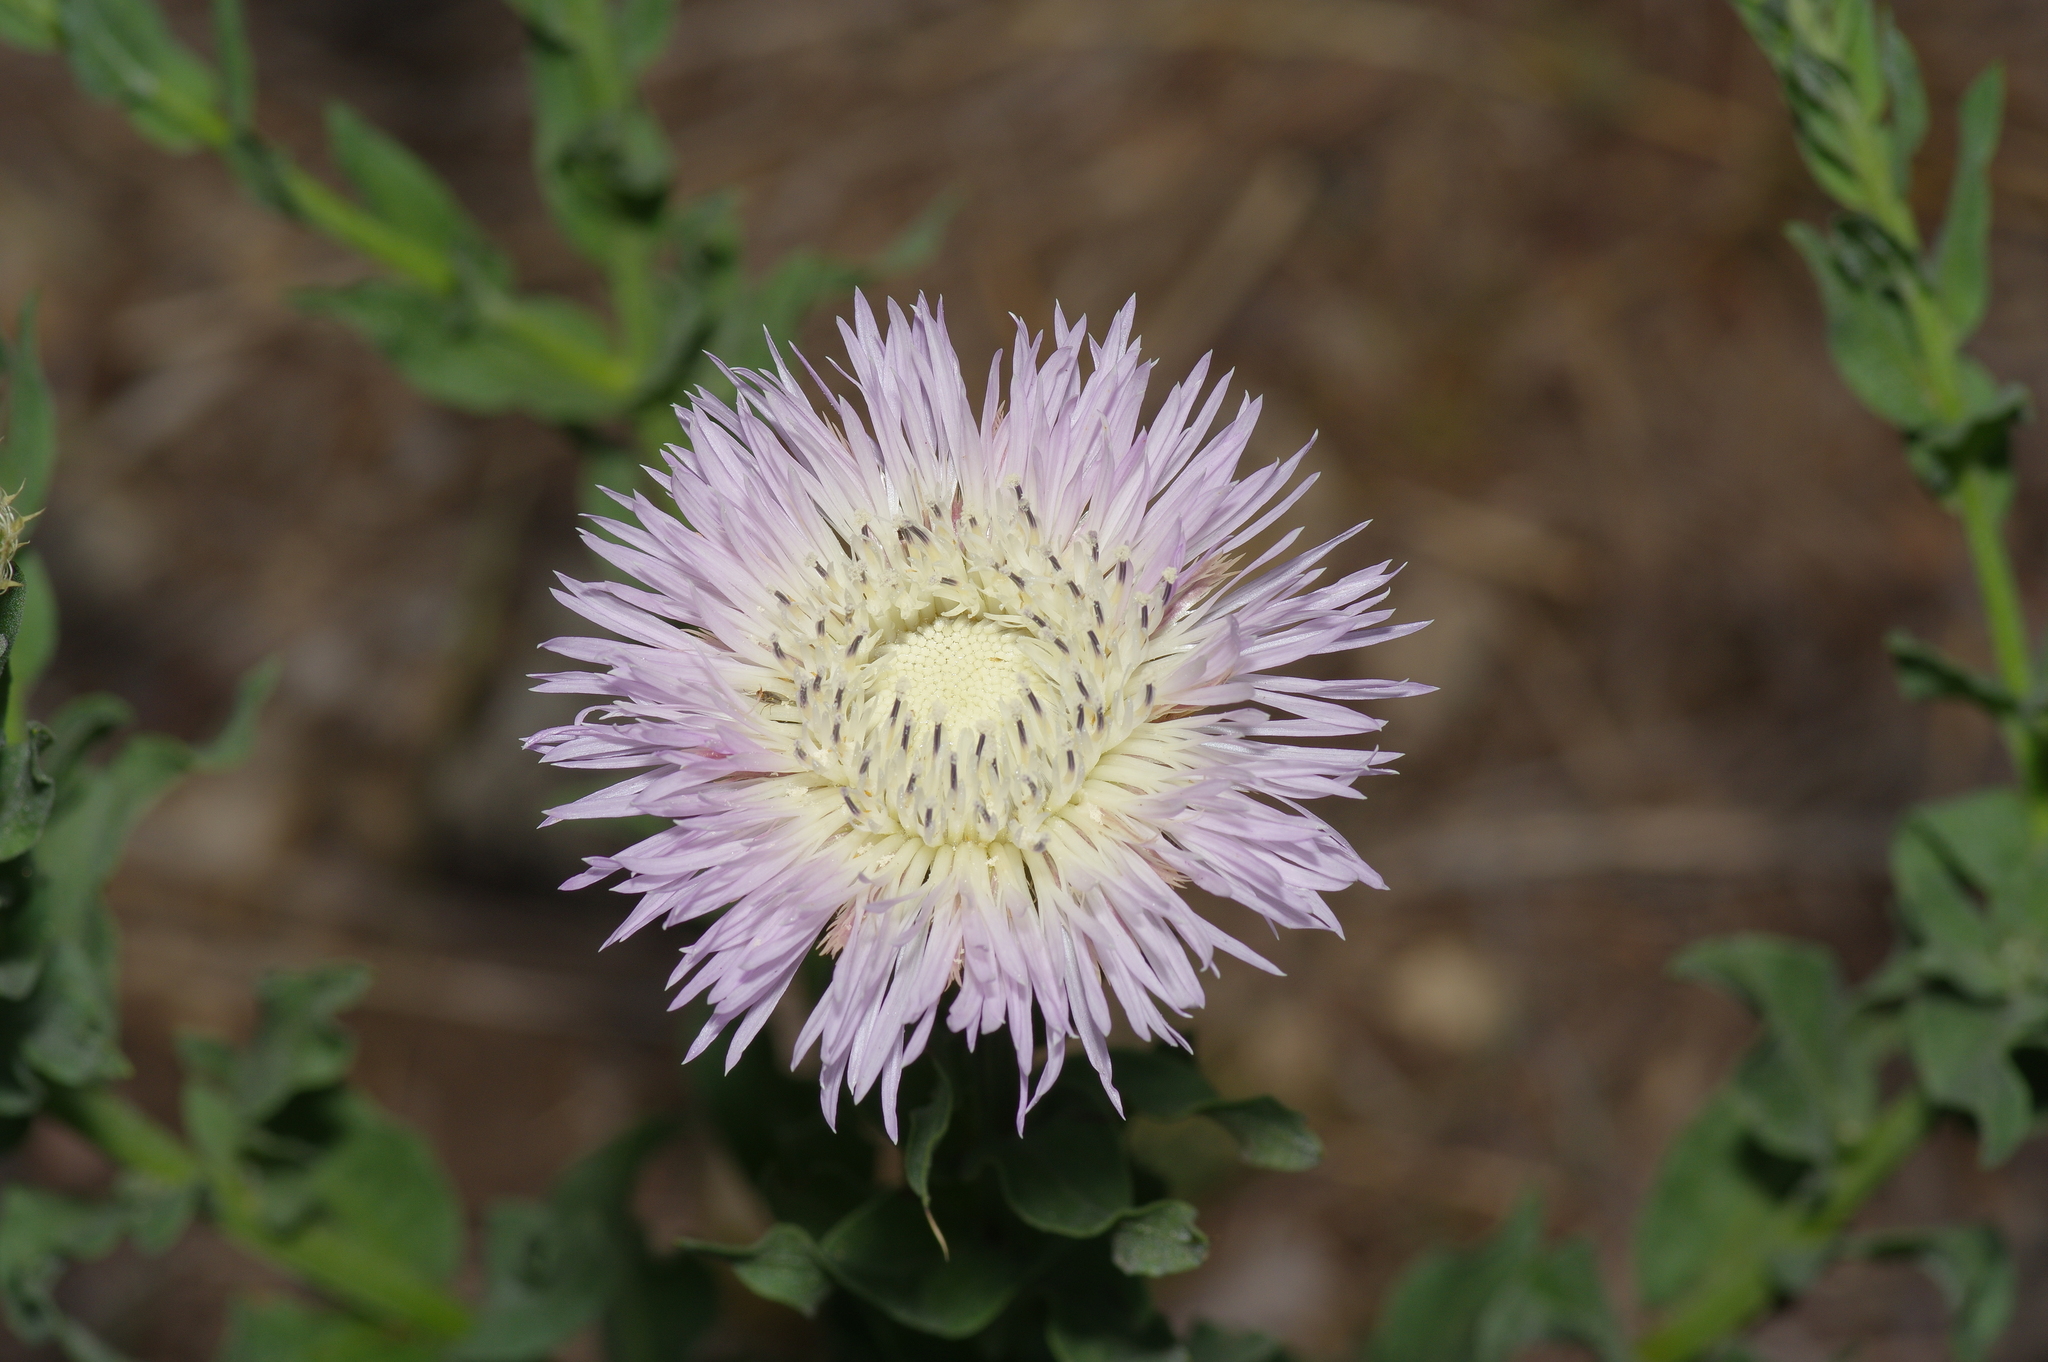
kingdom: Plantae
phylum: Tracheophyta
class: Magnoliopsida
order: Asterales
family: Asteraceae
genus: Plectocephalus
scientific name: Plectocephalus americanus
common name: American basket-flower
